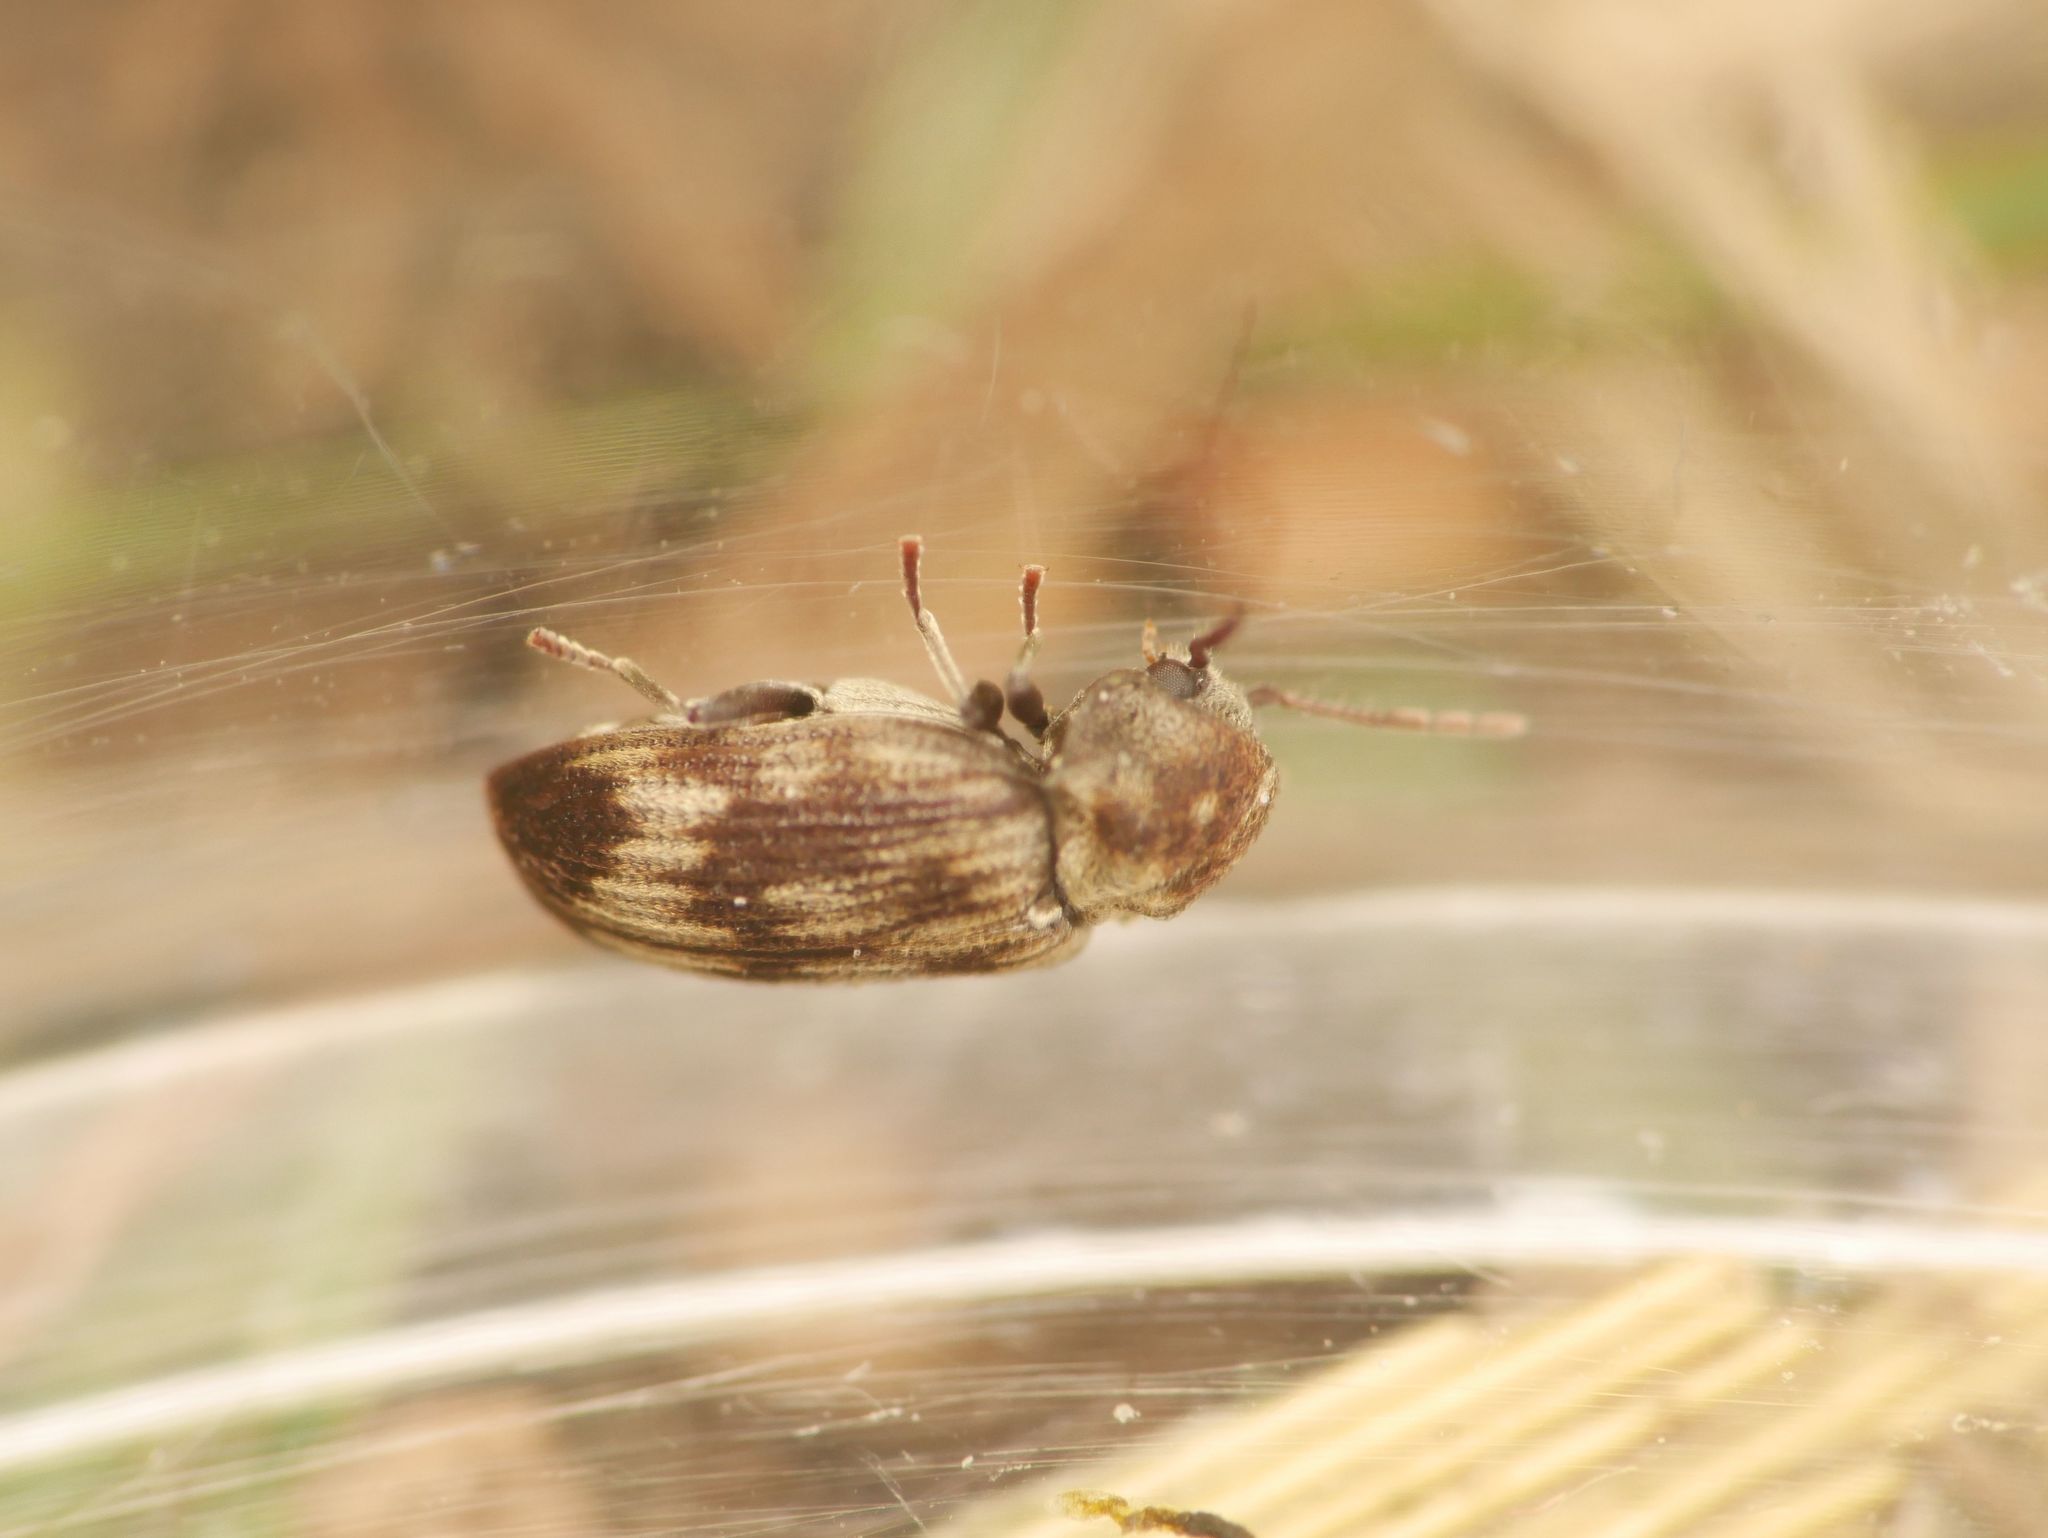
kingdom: Animalia
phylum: Arthropoda
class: Insecta
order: Coleoptera
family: Anobiidae
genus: Hadrobregmus
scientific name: Hadrobregmus notatus
